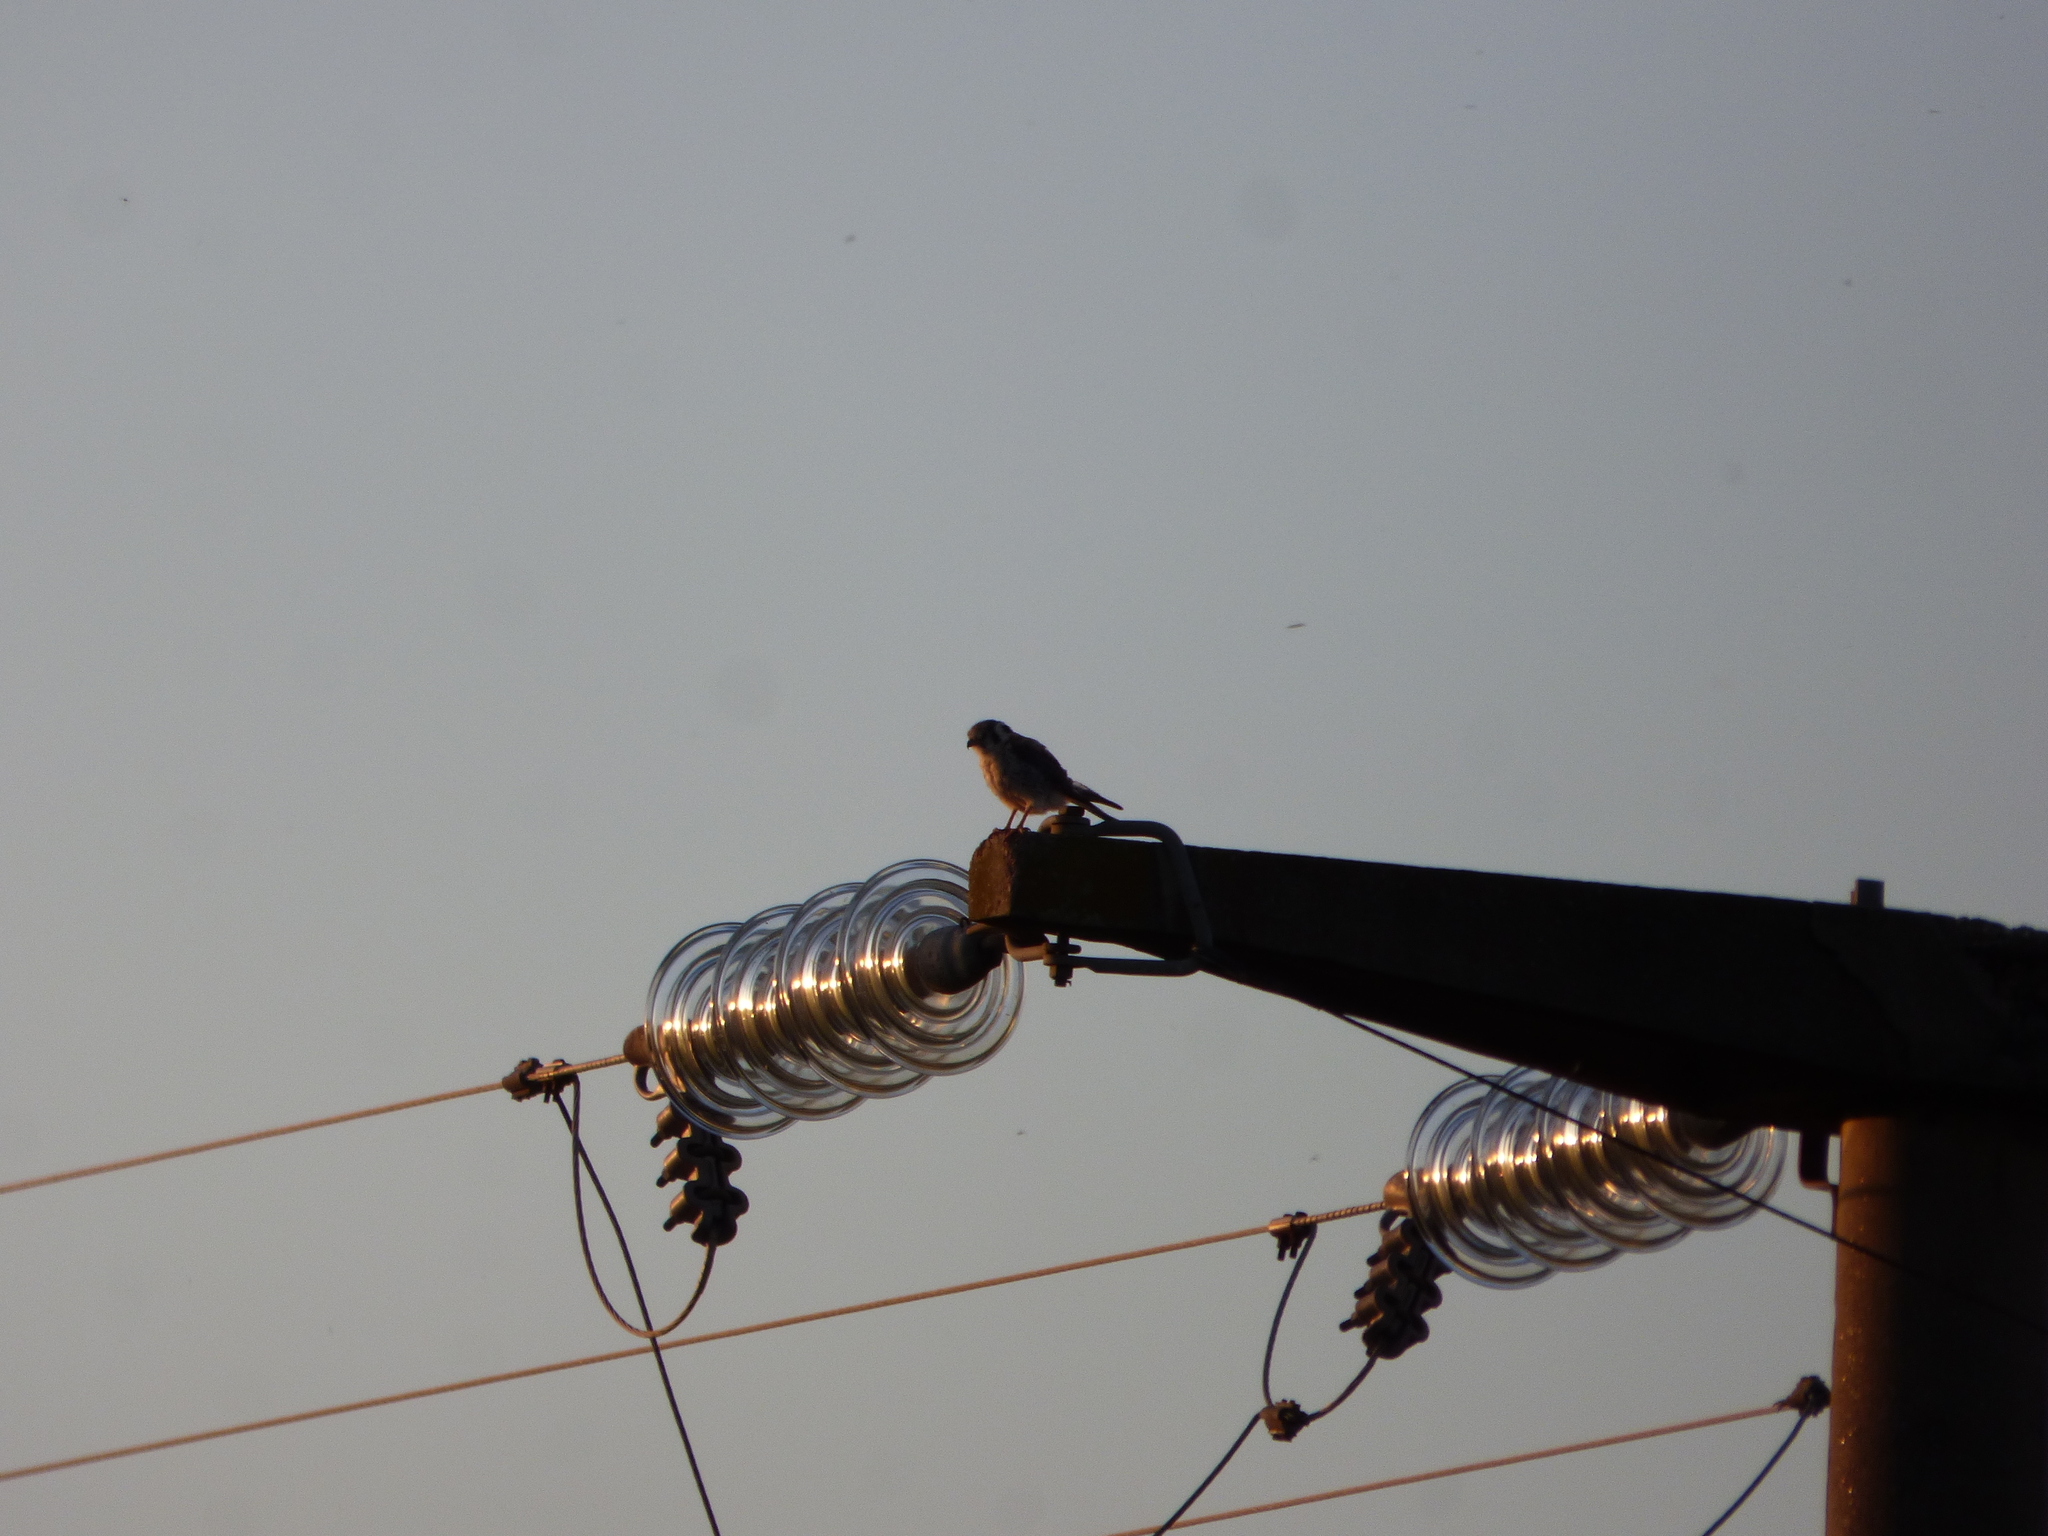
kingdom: Animalia
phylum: Chordata
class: Aves
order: Falconiformes
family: Falconidae
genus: Falco
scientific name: Falco sparverius
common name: American kestrel
